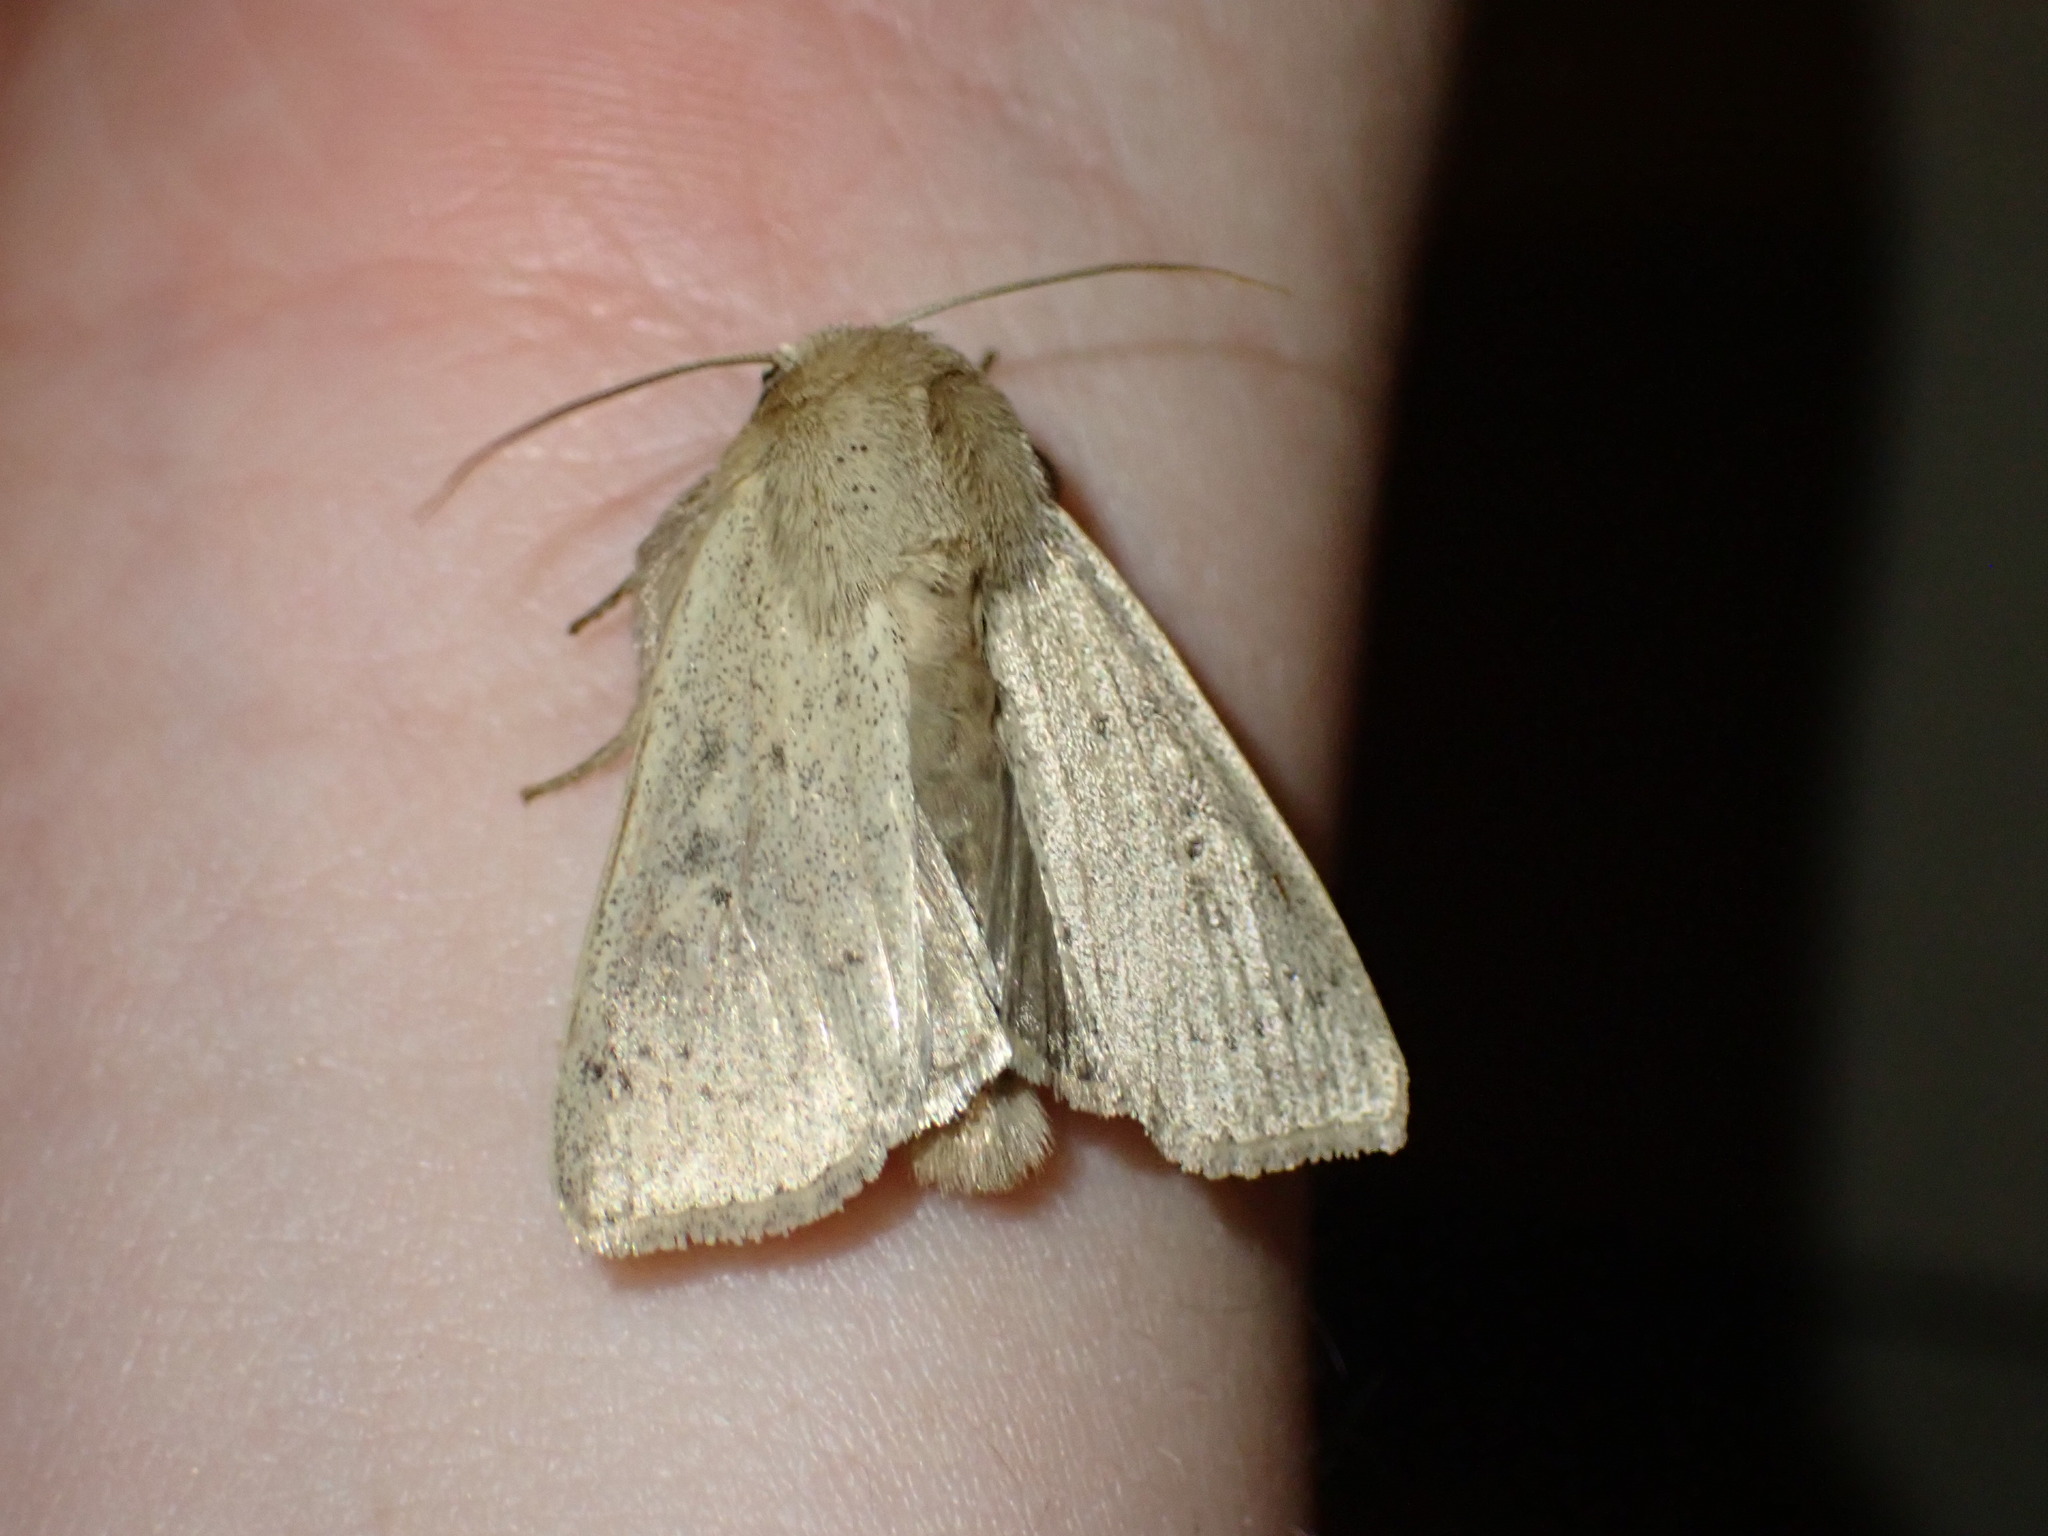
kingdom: Animalia
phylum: Arthropoda
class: Insecta
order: Lepidoptera
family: Noctuidae
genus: Leucania
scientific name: Leucania ursula
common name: Ursula wainscot
